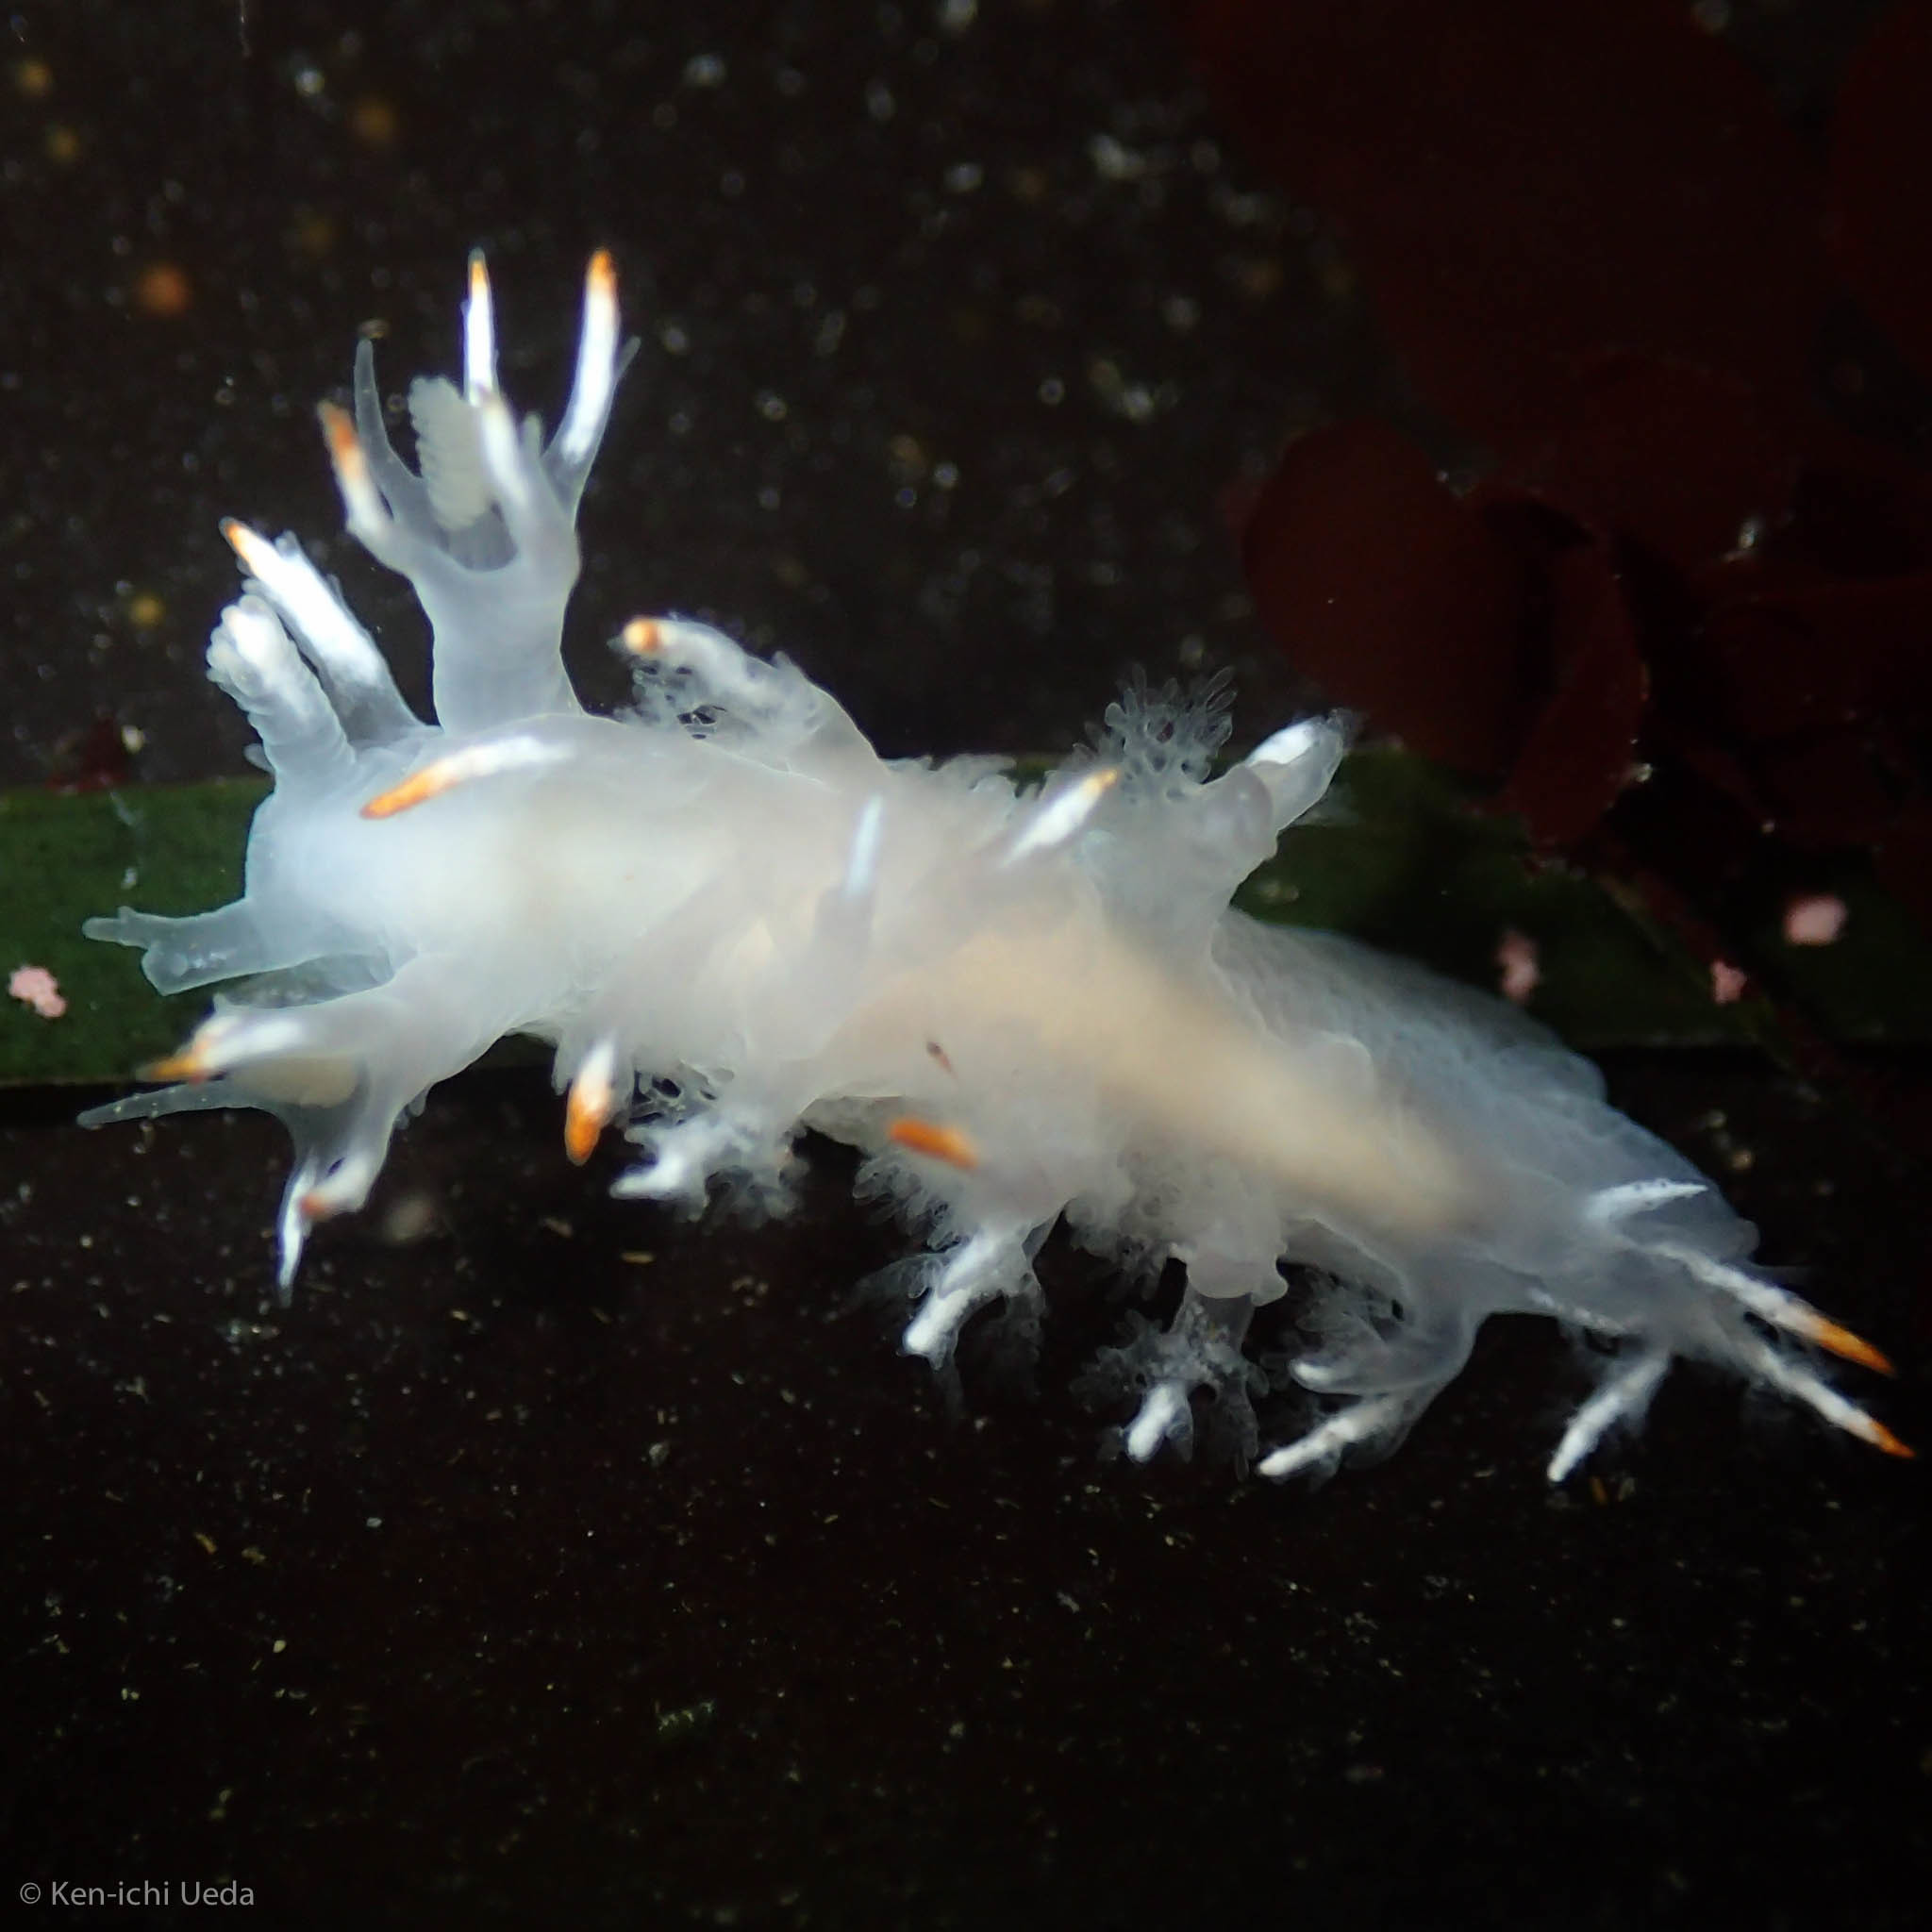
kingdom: Animalia
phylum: Mollusca
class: Gastropoda
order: Nudibranchia
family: Dendronotidae
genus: Dendronotus
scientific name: Dendronotus albus
